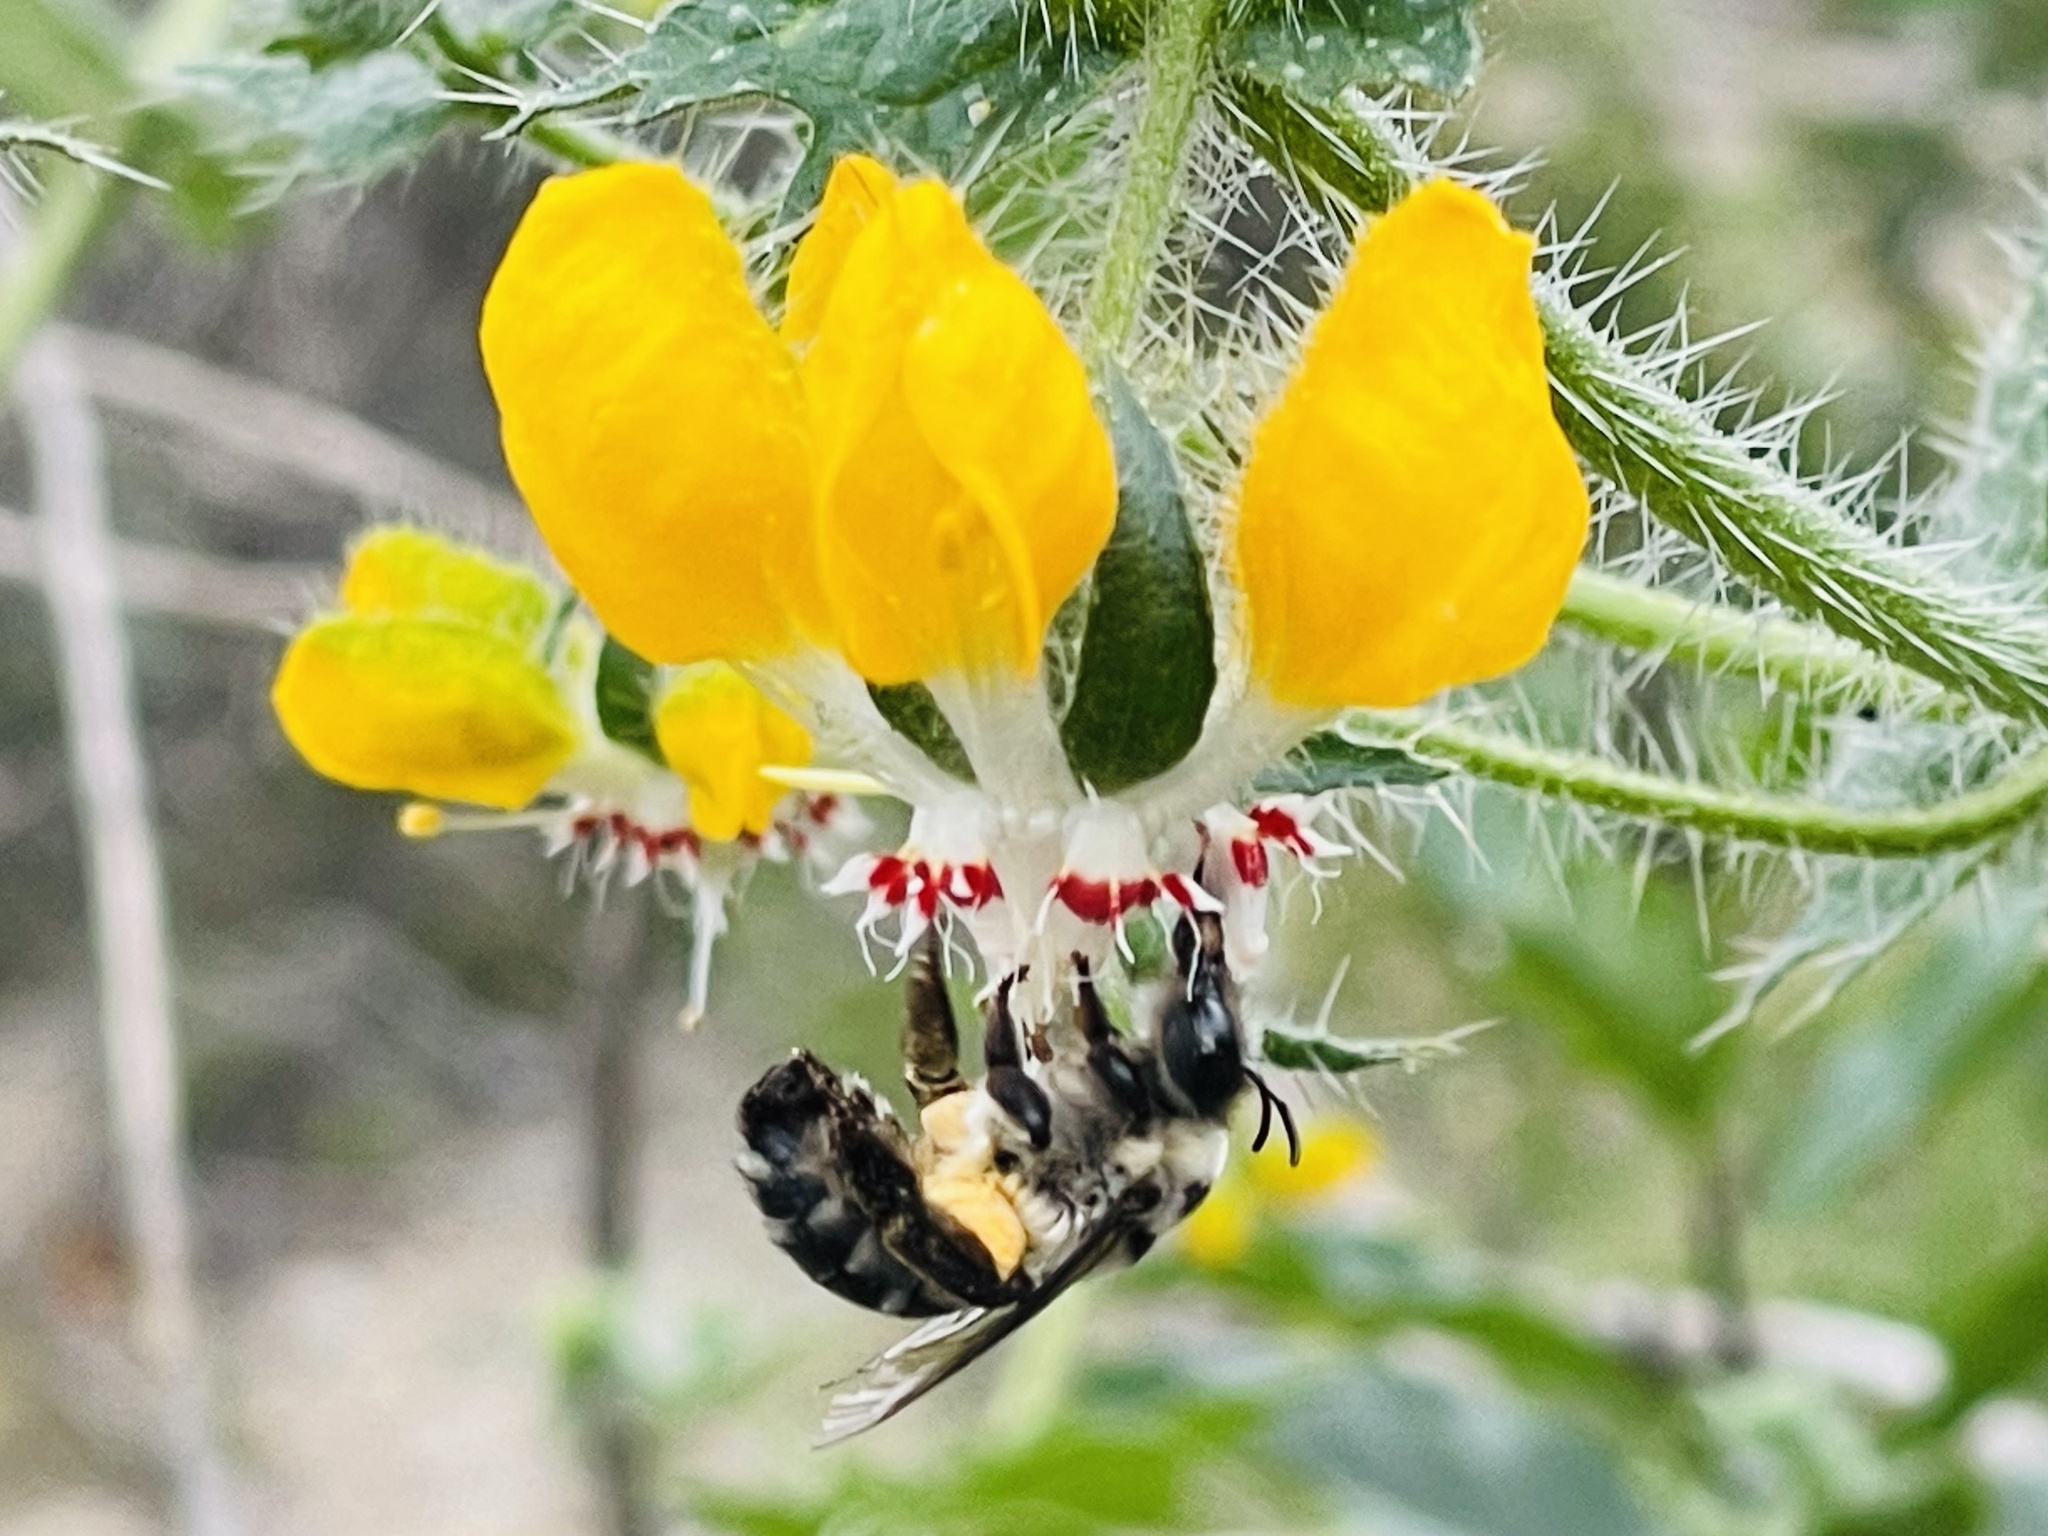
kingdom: Animalia
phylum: Arthropoda
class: Insecta
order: Hymenoptera
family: Colletidae
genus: Caupolicana
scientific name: Caupolicana hirsuta
